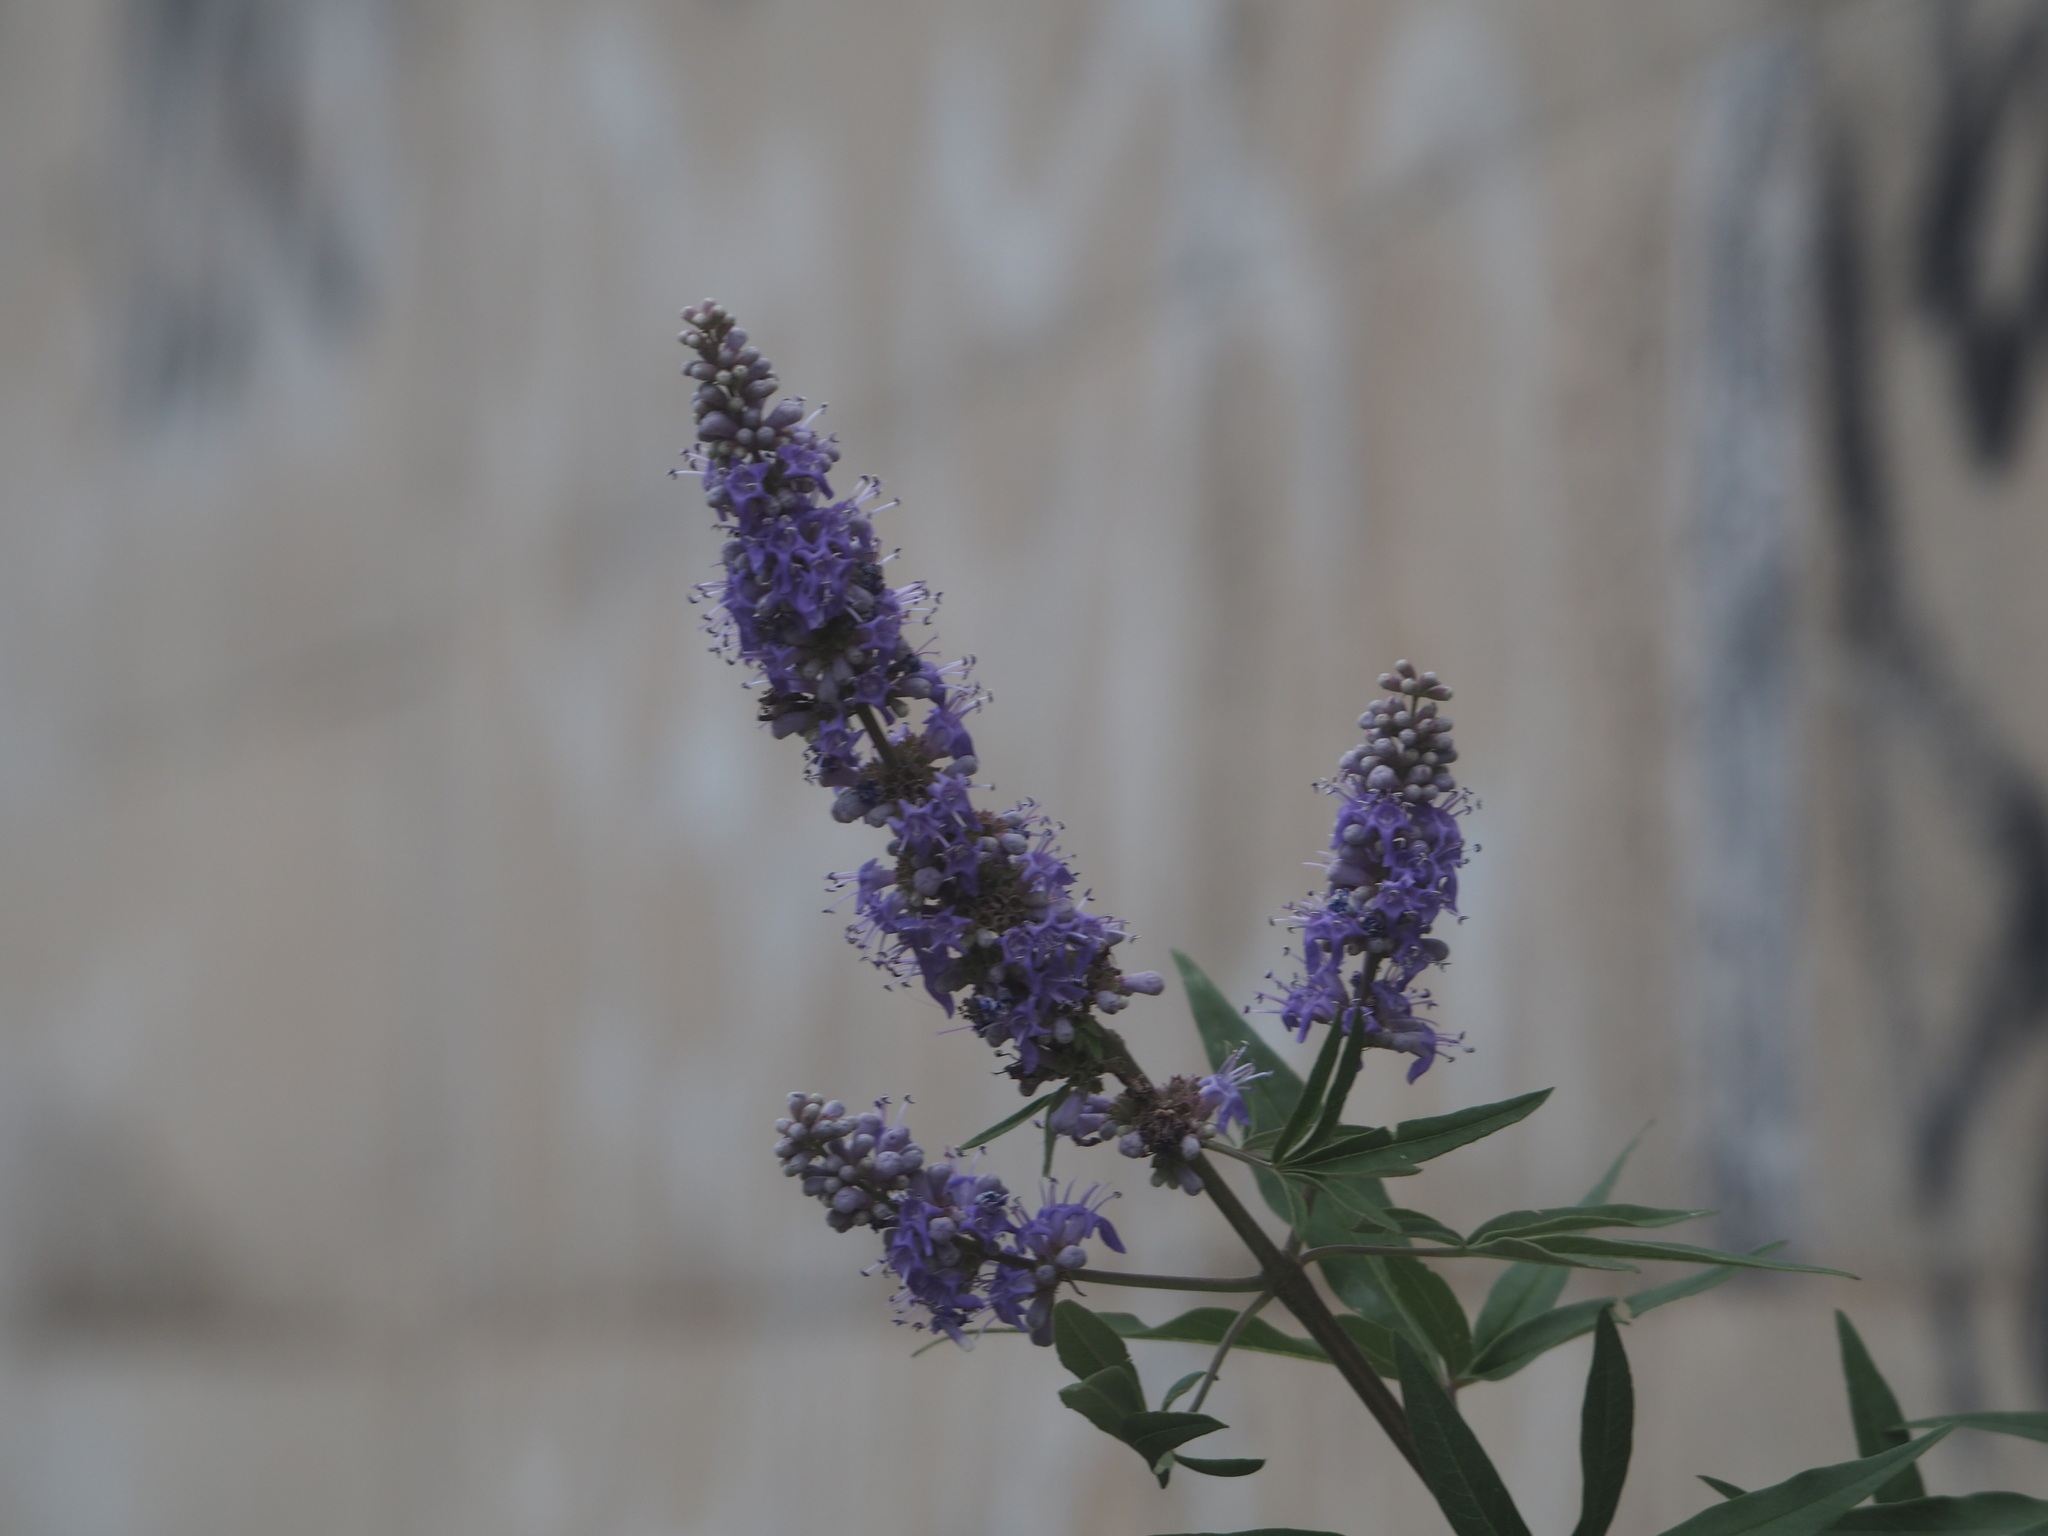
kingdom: Plantae
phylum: Tracheophyta
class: Magnoliopsida
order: Lamiales
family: Lamiaceae
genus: Vitex
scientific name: Vitex agnus-castus
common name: Chasteberry
